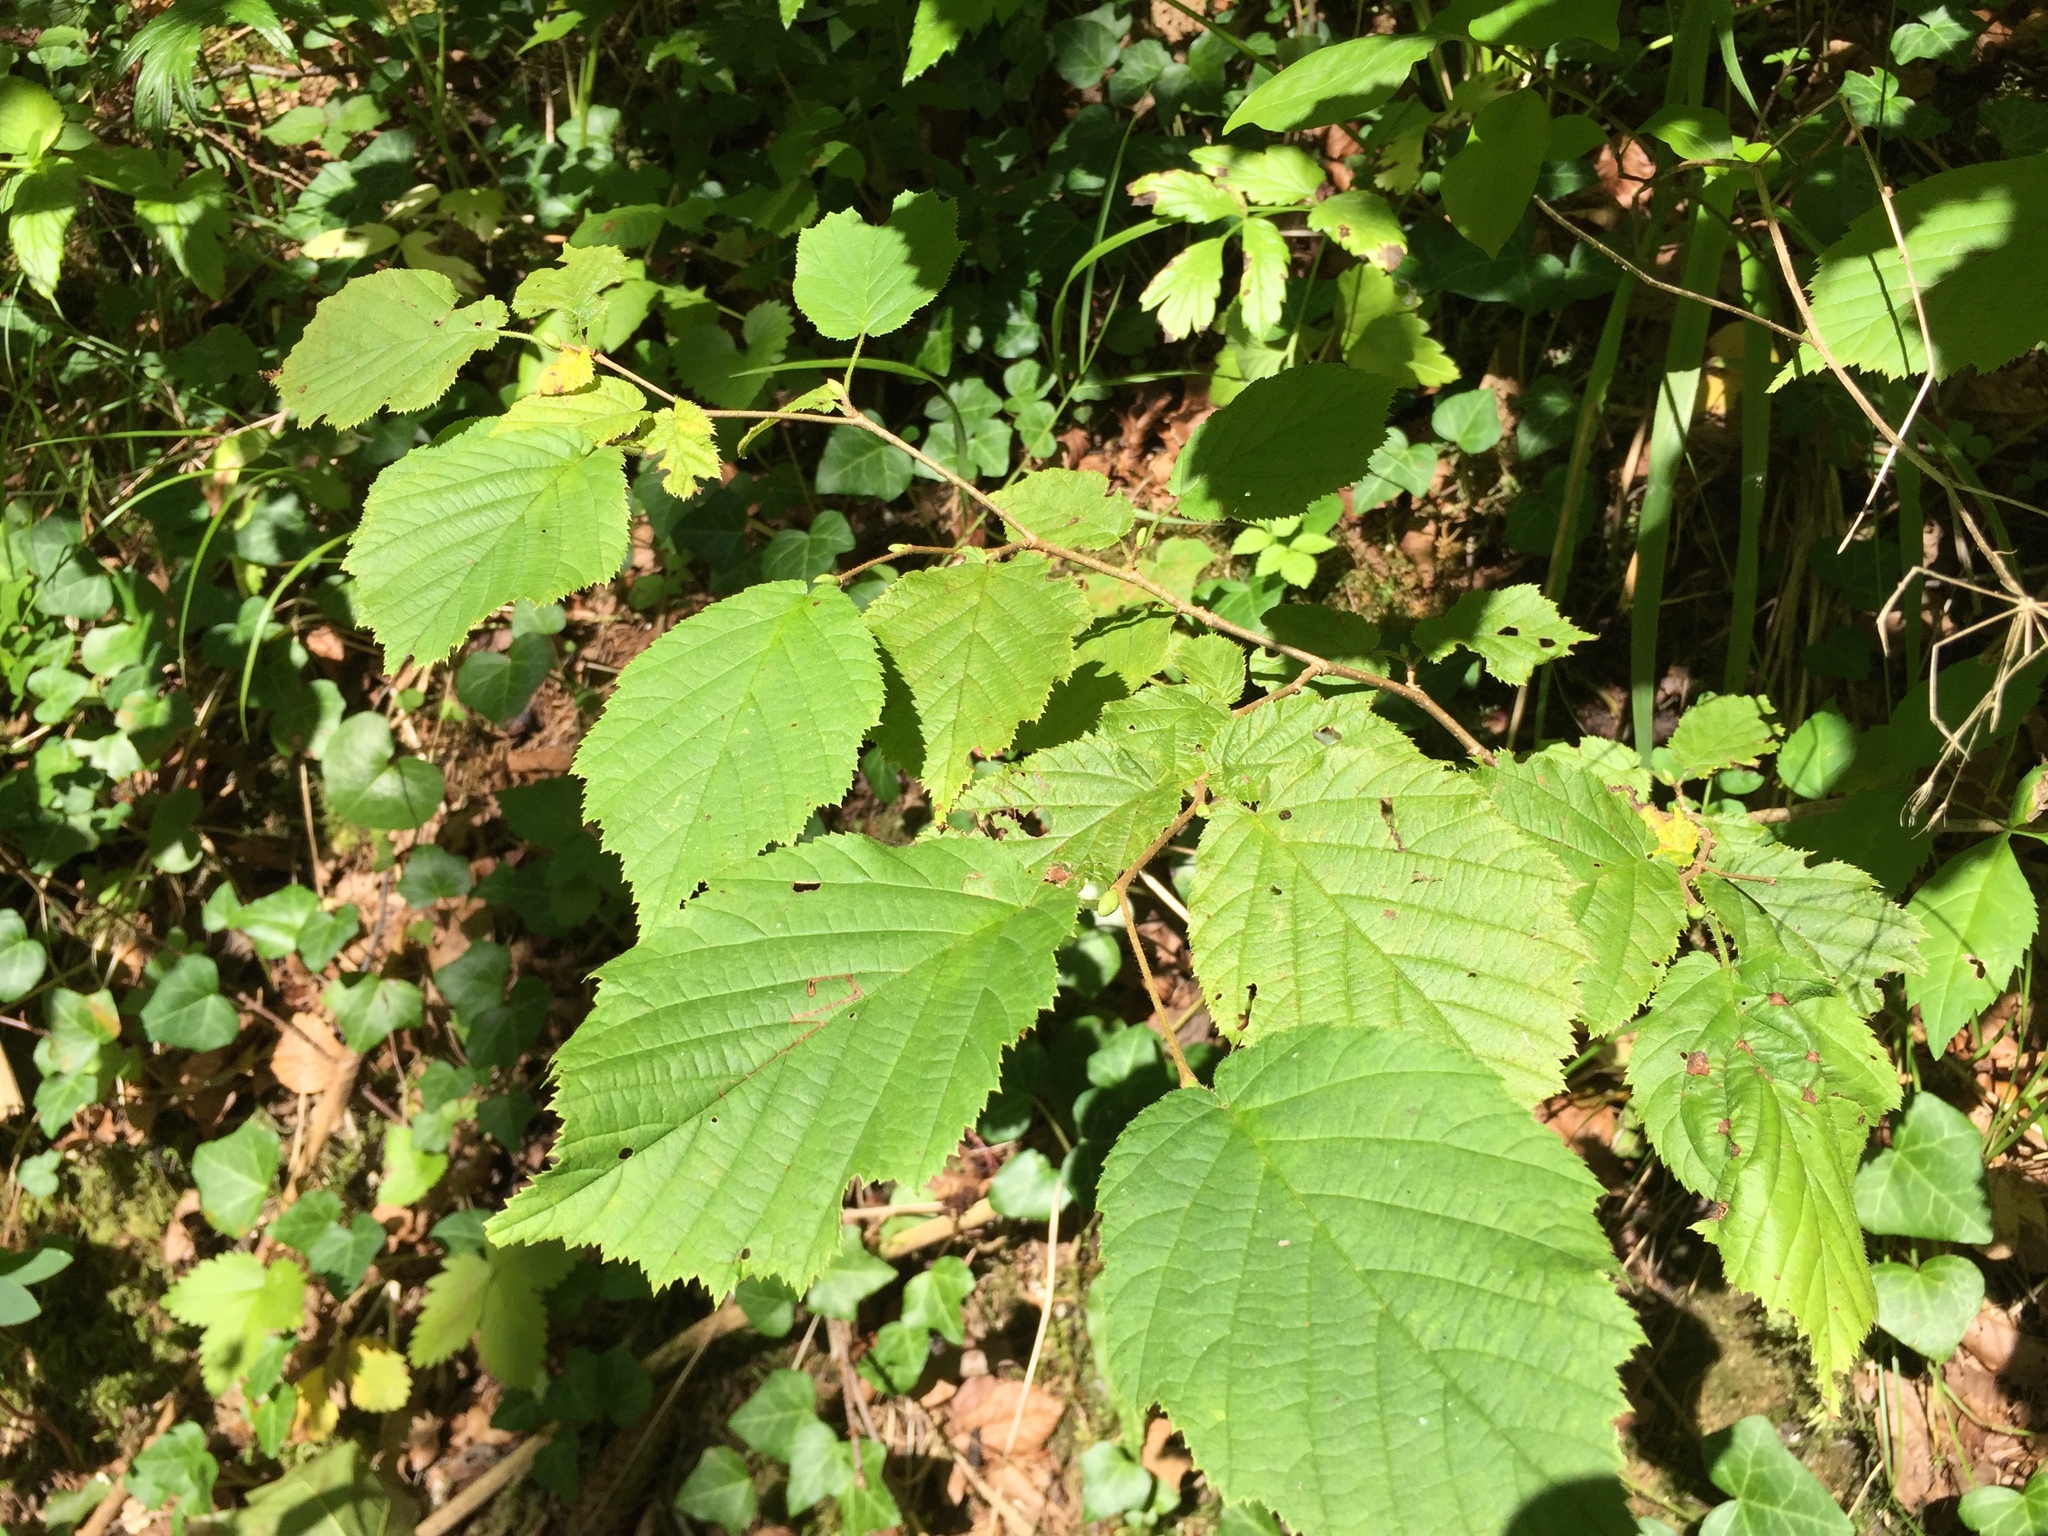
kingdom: Plantae
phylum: Tracheophyta
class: Magnoliopsida
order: Fagales
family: Betulaceae
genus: Corylus
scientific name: Corylus avellana
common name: European hazel
